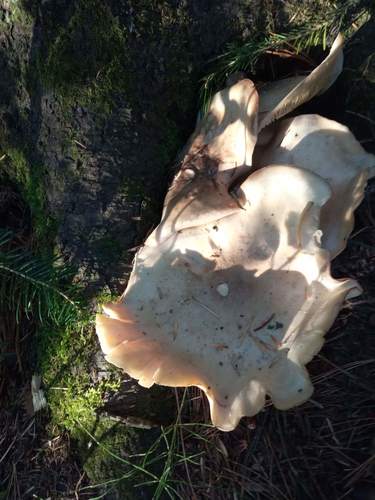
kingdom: Fungi
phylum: Basidiomycota
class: Agaricomycetes
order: Agaricales
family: Entolomataceae
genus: Clitopilus
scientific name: Clitopilus prunulus
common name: The miller
